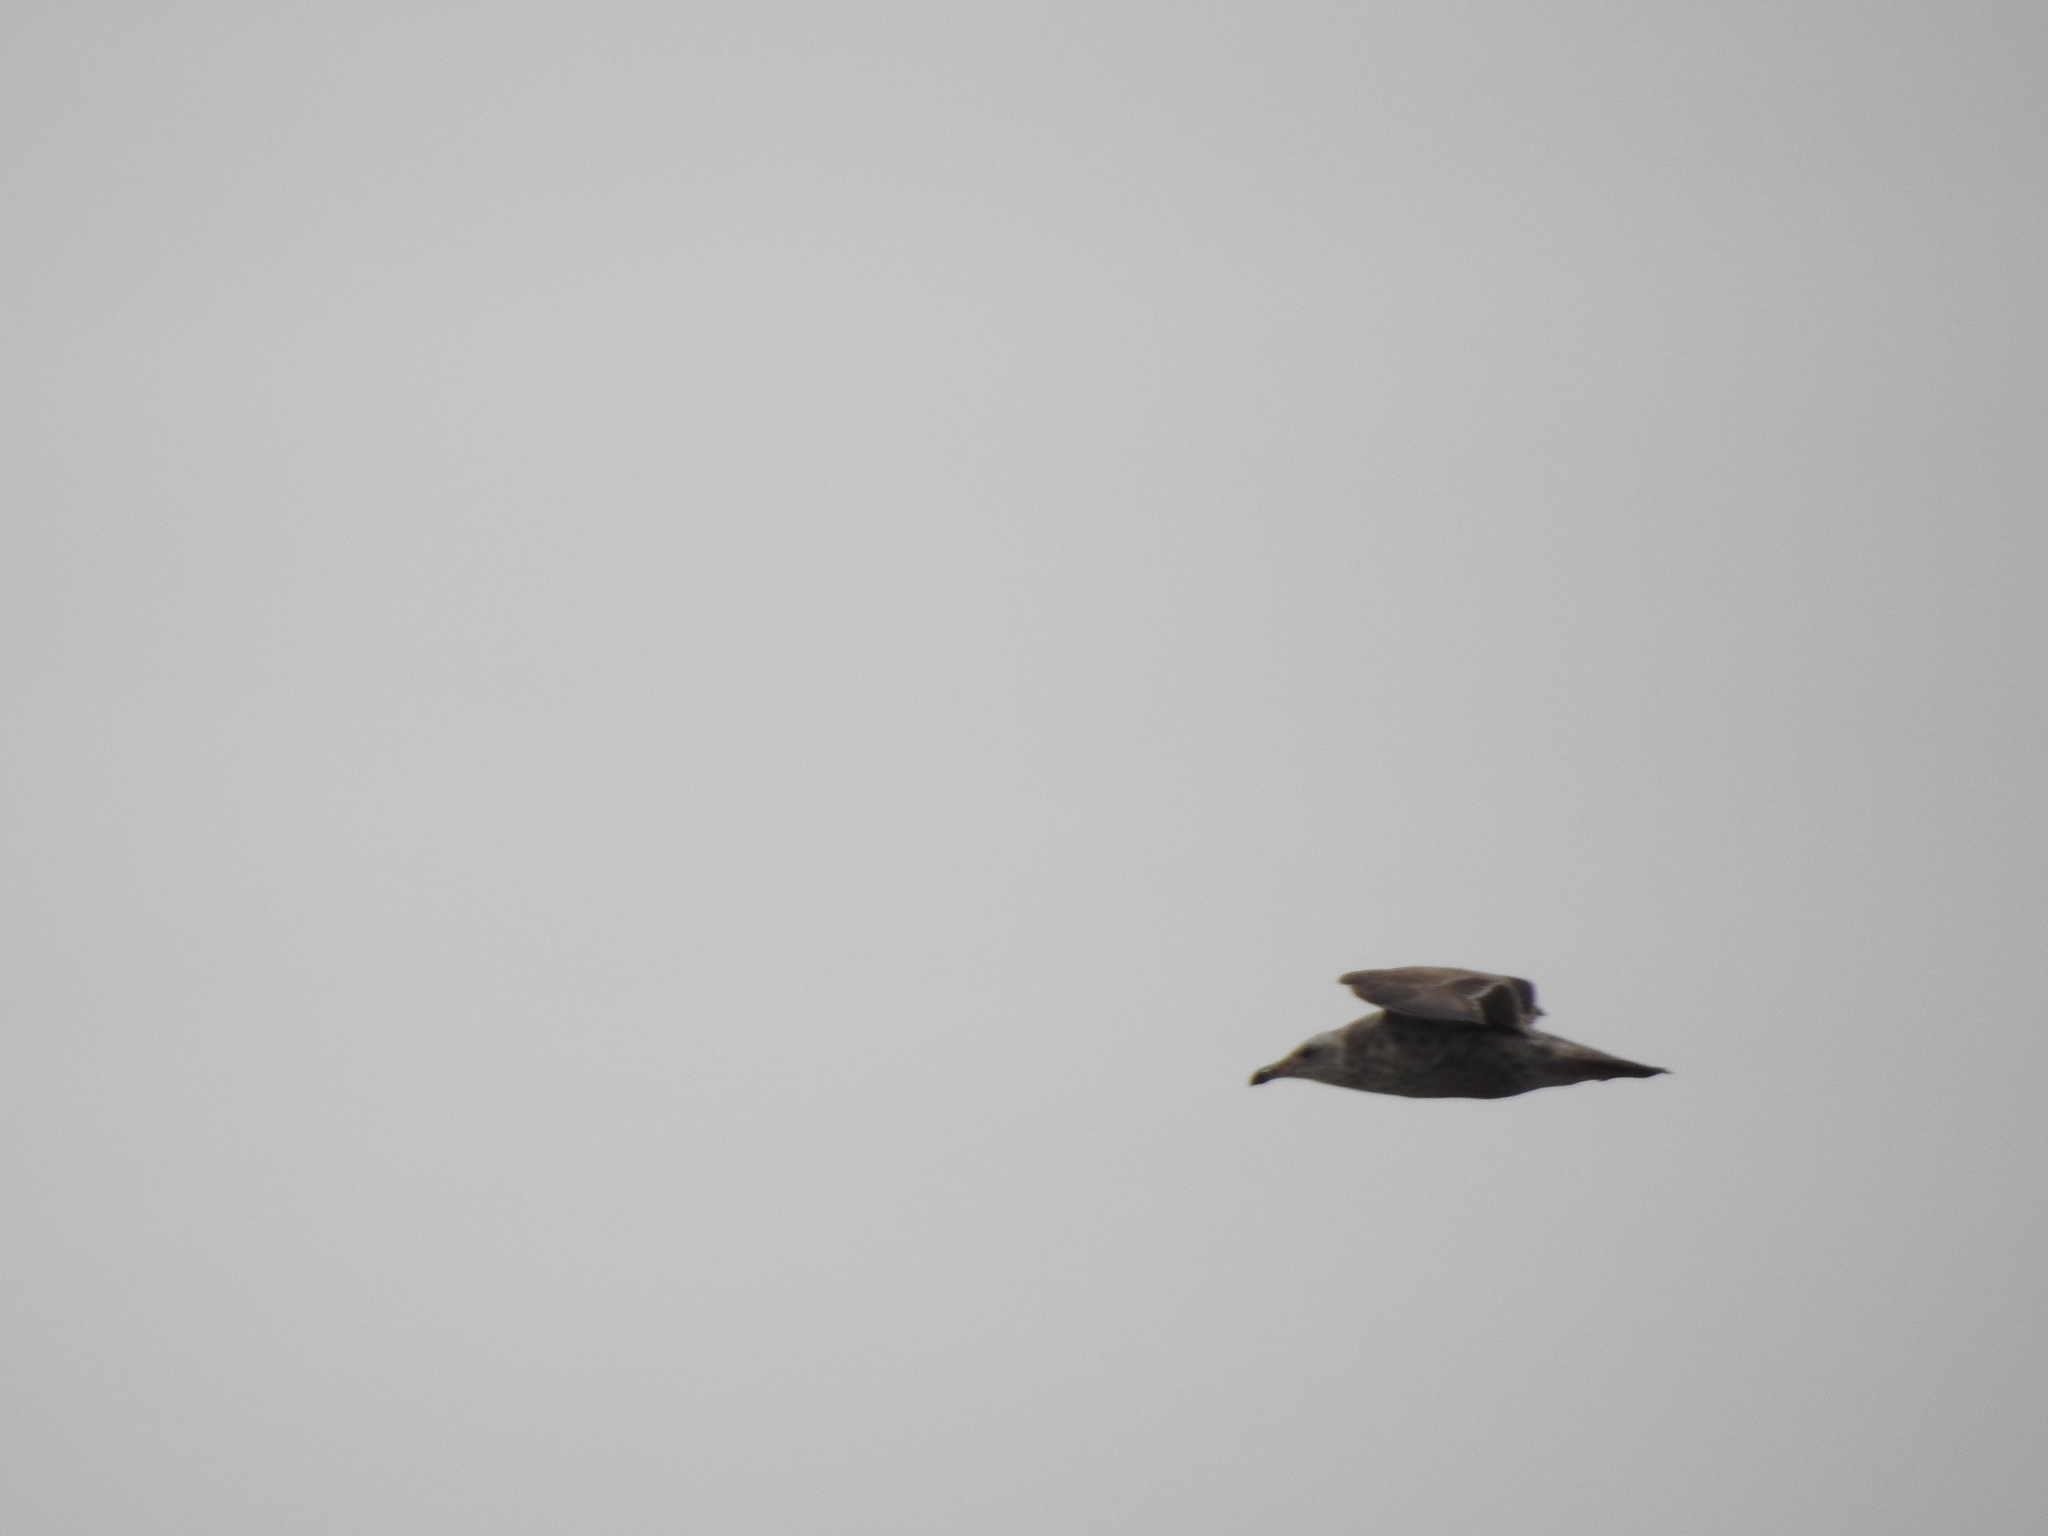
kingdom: Animalia
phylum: Chordata
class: Aves
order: Charadriiformes
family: Laridae
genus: Larus
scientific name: Larus argentatus
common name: Herring gull
